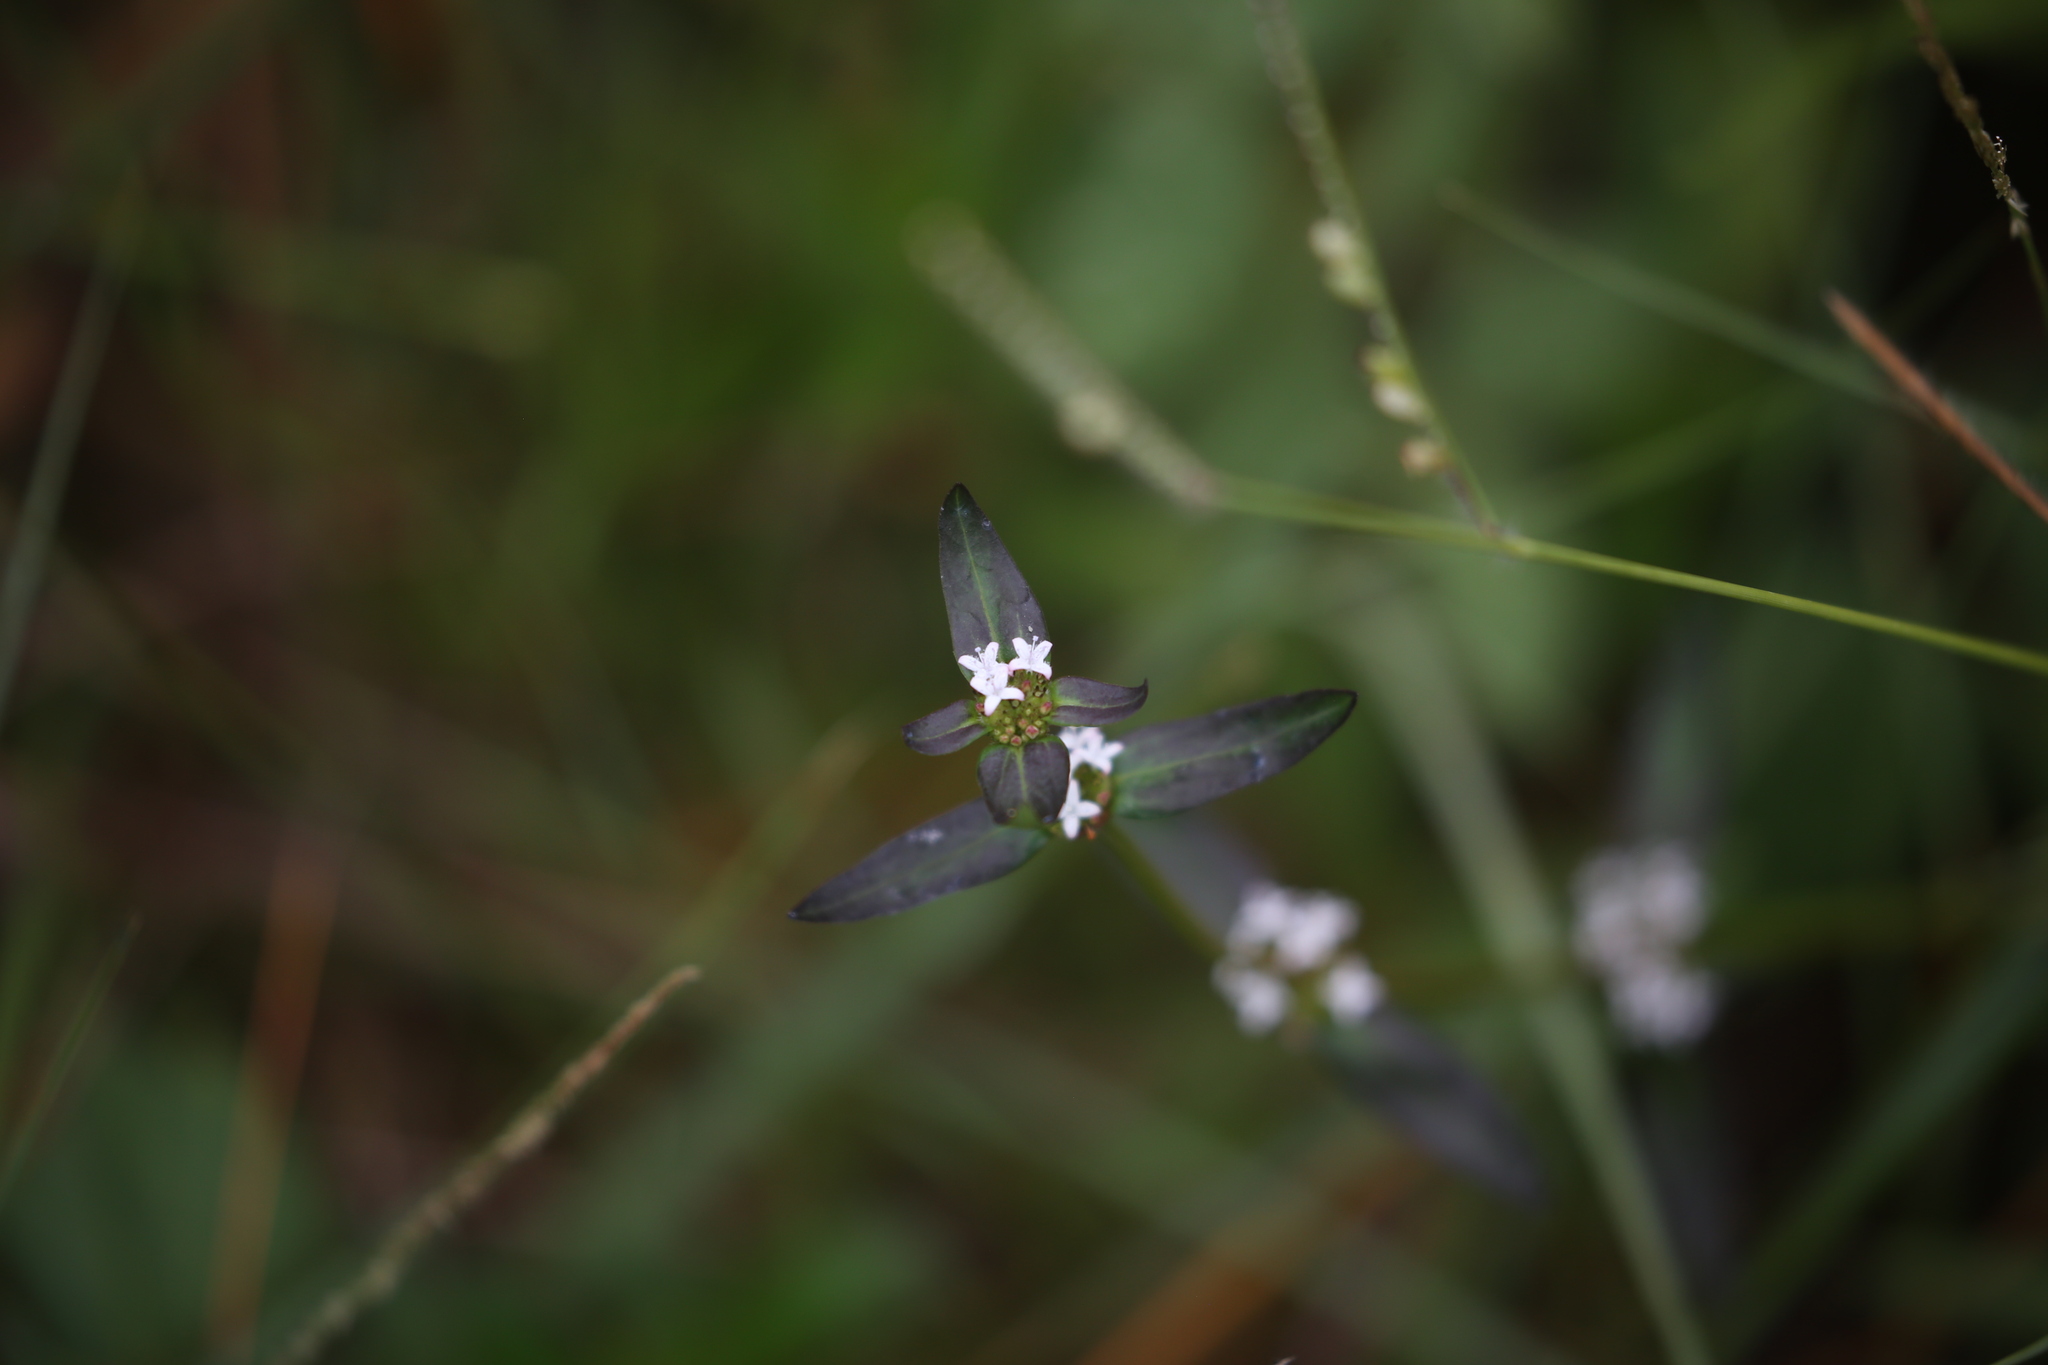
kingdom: Plantae
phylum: Tracheophyta
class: Magnoliopsida
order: Gentianales
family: Rubiaceae
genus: Spermacoce
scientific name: Spermacoce remota
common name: Woodland false buttonweed
